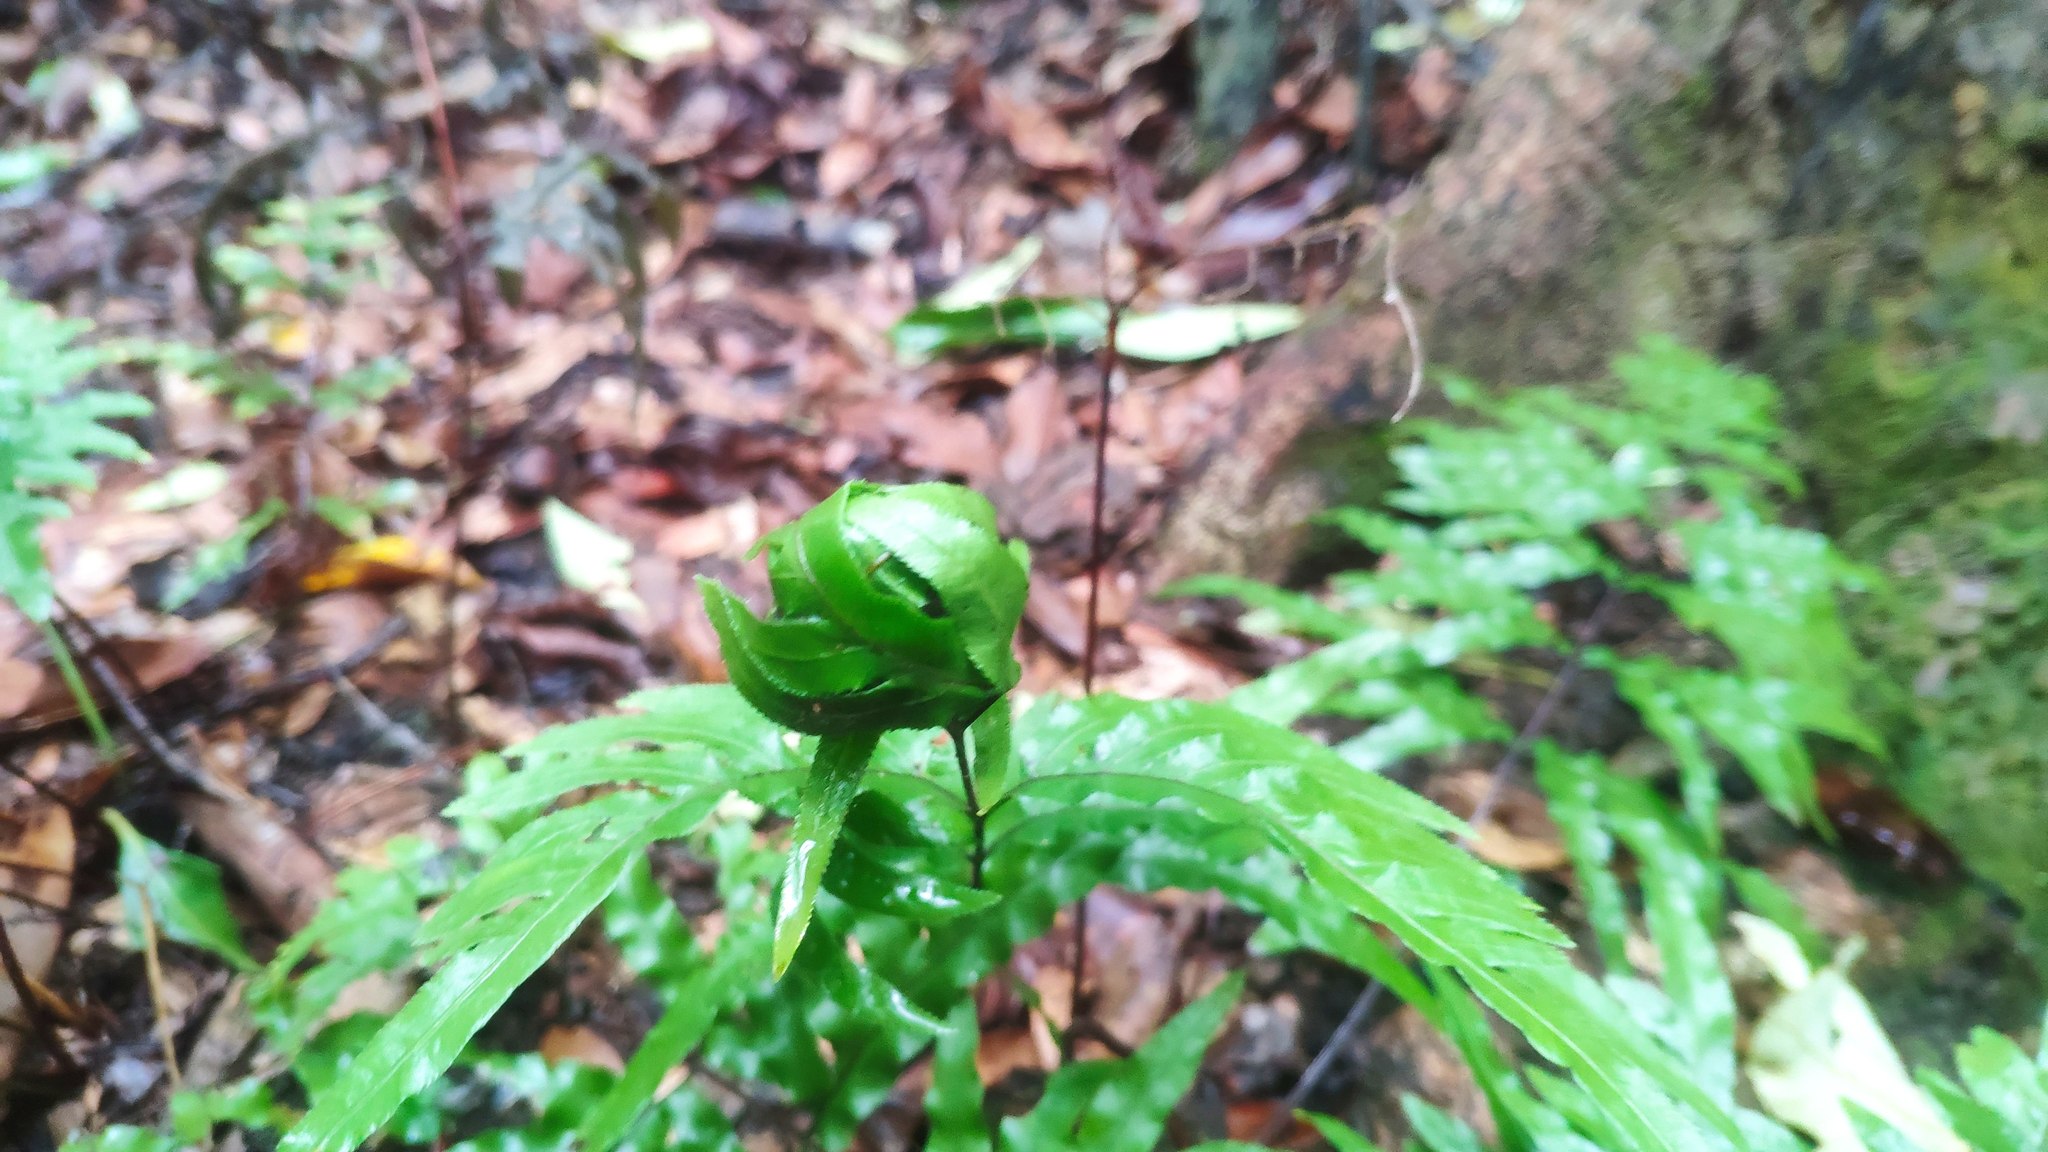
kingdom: Plantae
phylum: Tracheophyta
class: Polypodiopsida
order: Polypodiales
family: Pteridaceae
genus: Pteris
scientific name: Pteris semipinnata
